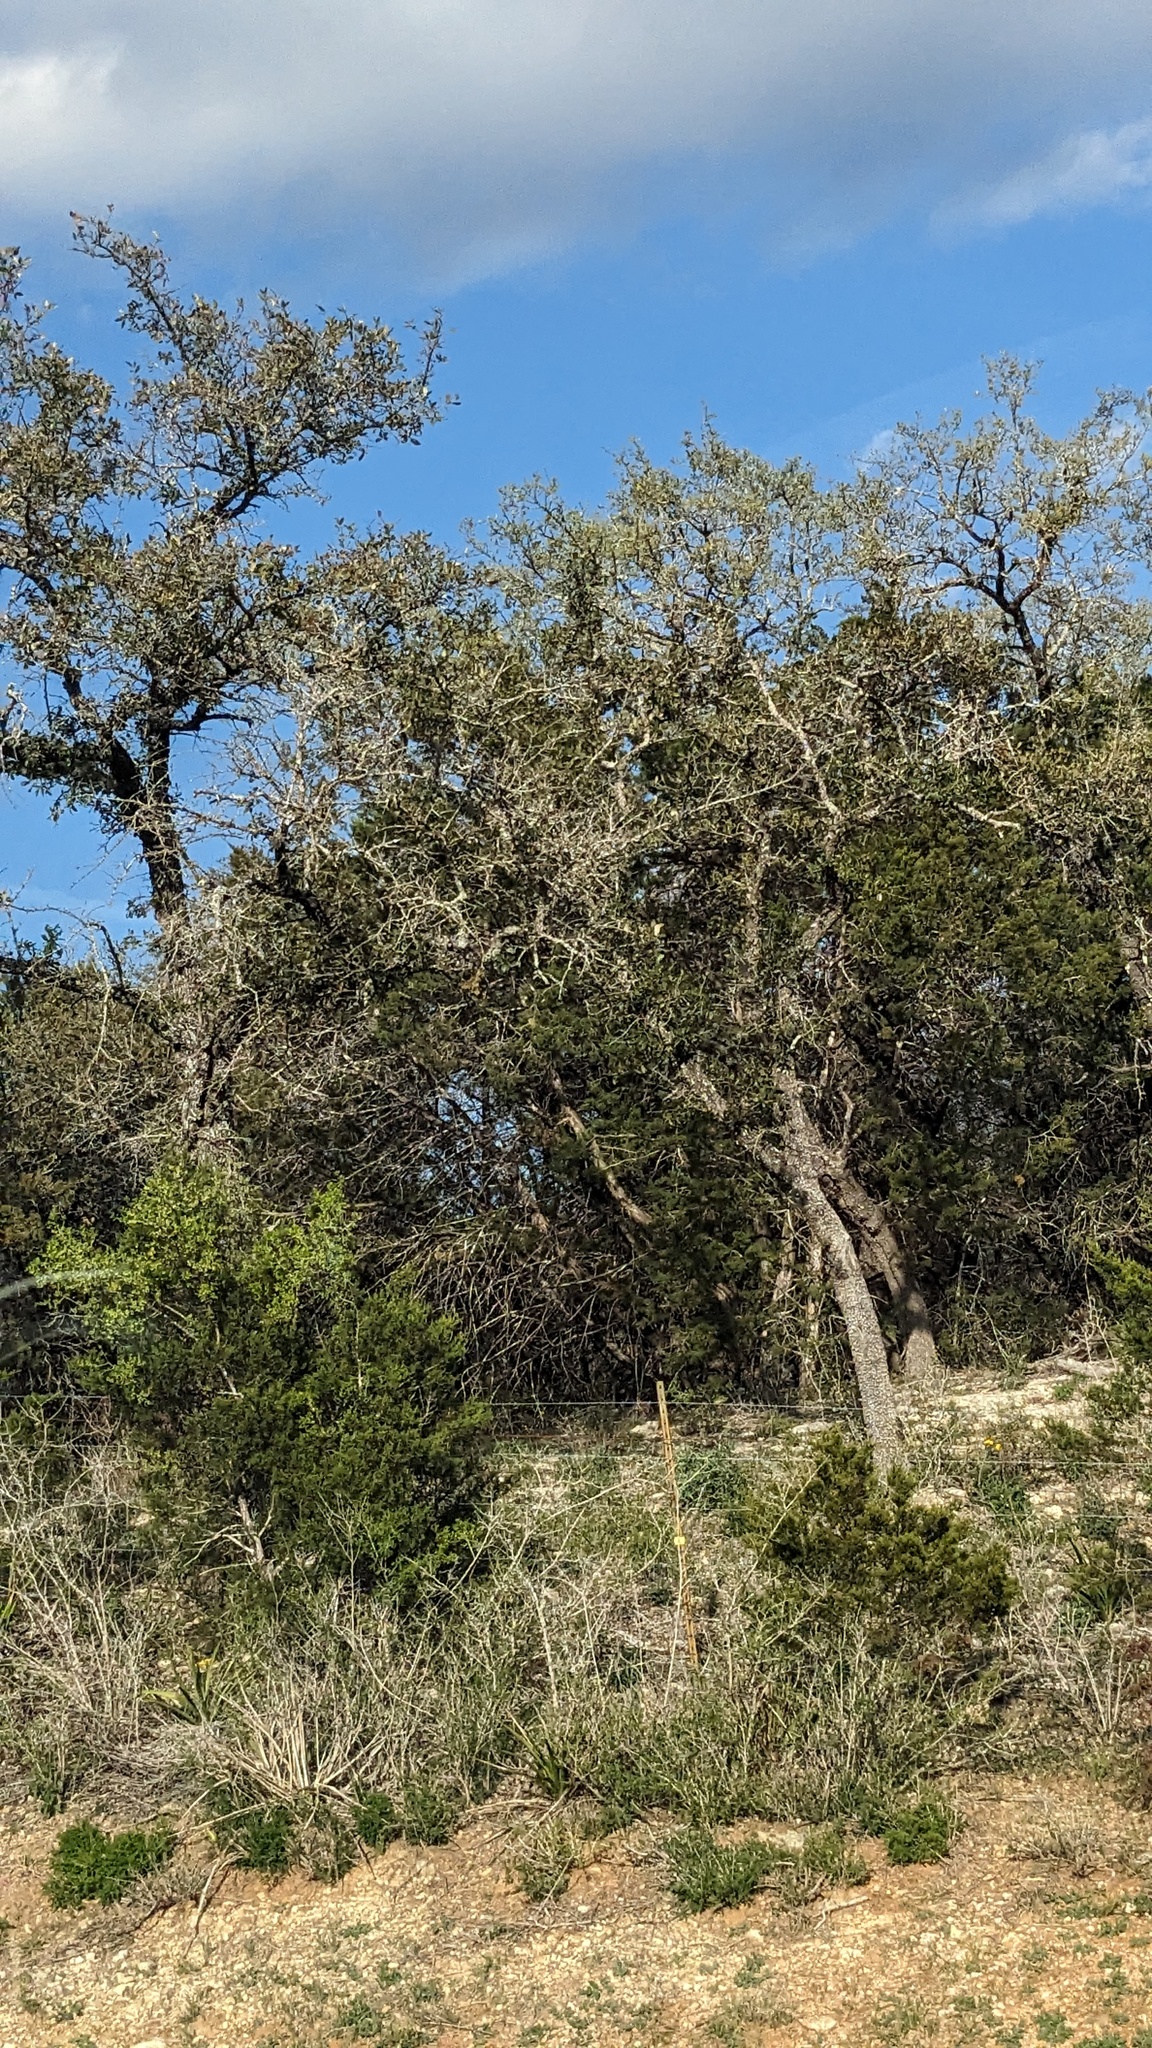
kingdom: Plantae
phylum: Tracheophyta
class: Magnoliopsida
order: Fagales
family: Fagaceae
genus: Quercus
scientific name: Quercus fusiformis
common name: Texas live oak
